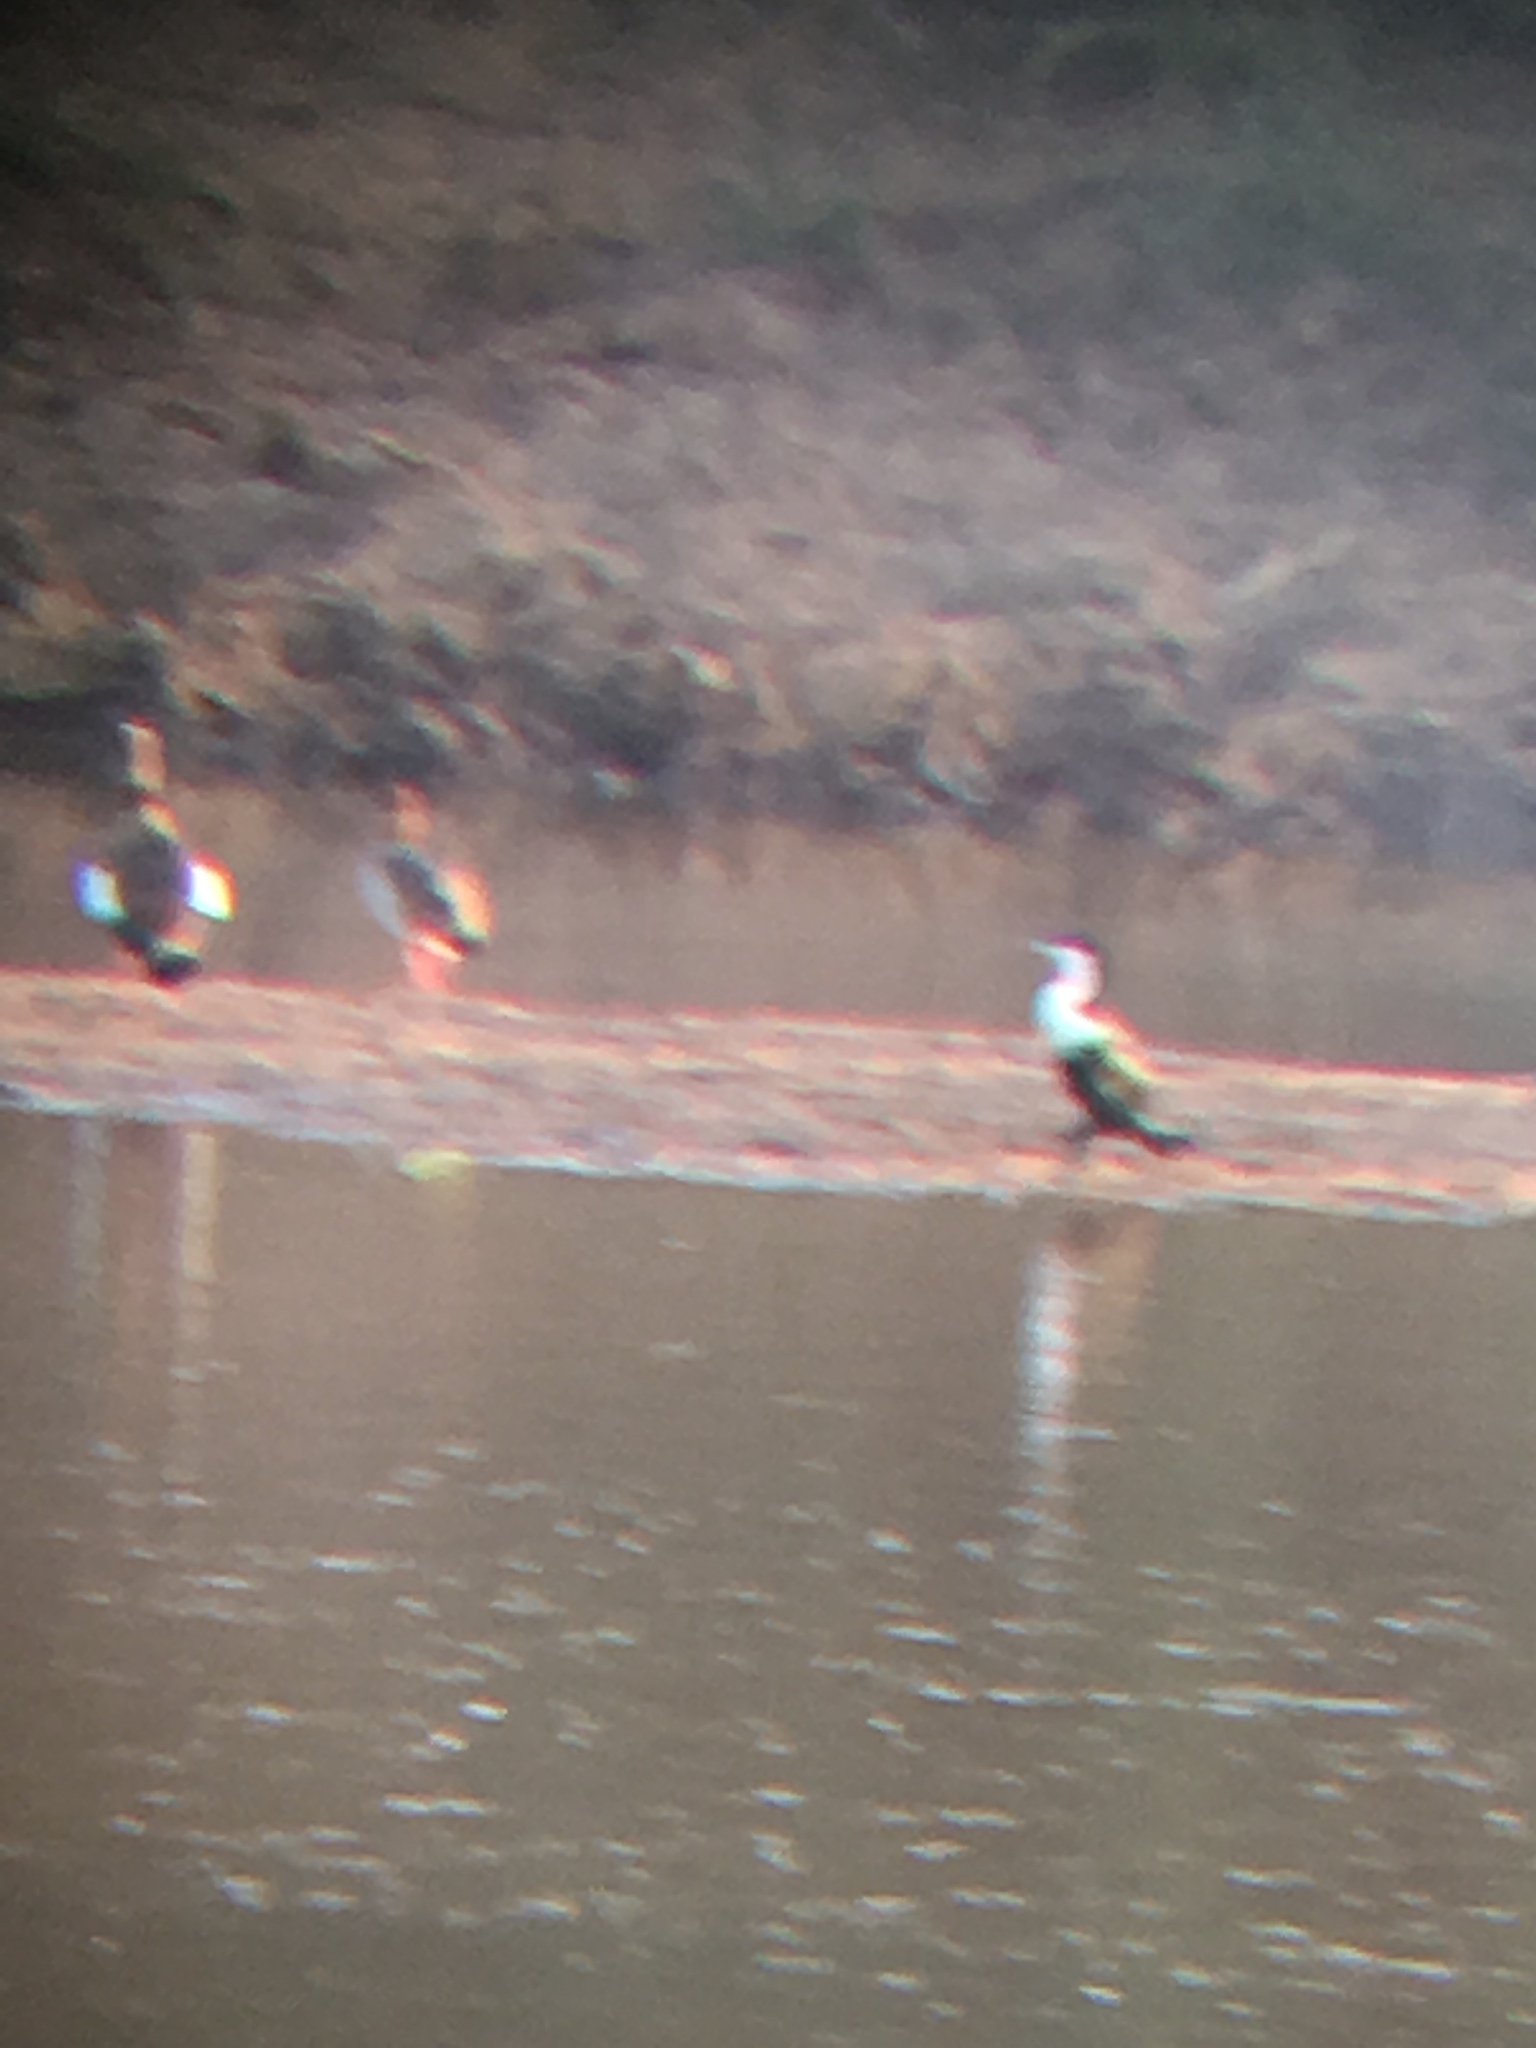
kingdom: Animalia
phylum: Chordata
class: Aves
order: Suliformes
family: Phalacrocoracidae
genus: Phalacrocorax
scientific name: Phalacrocorax carbo
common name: Great cormorant
